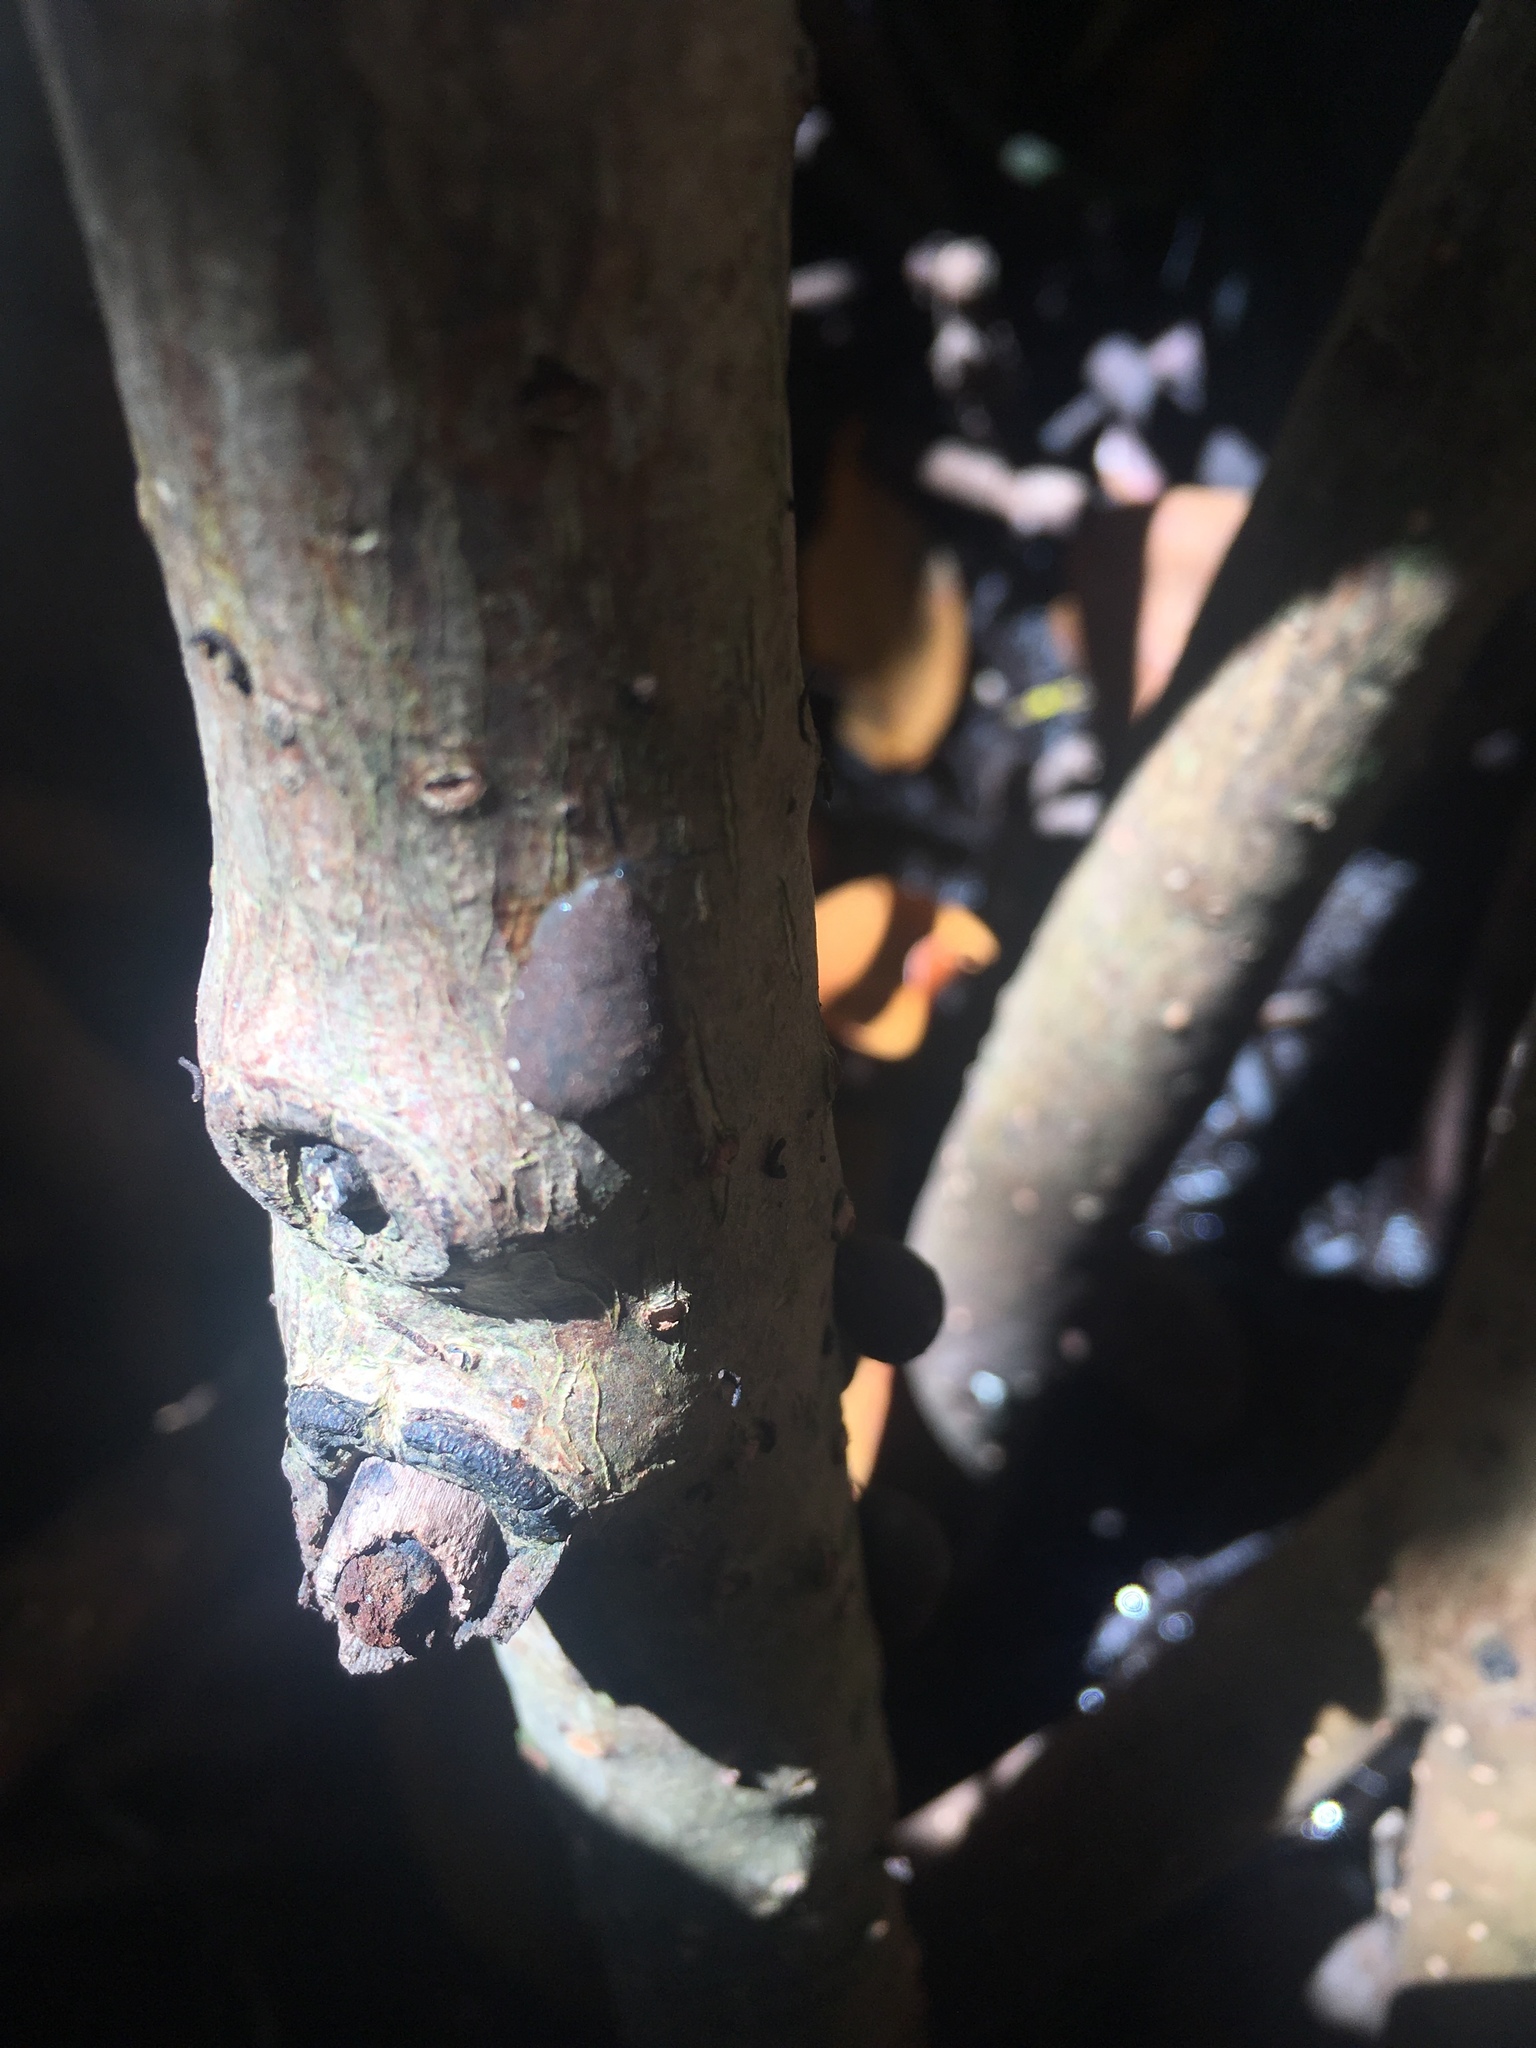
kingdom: Animalia
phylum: Mollusca
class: Gastropoda
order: Ellobiida
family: Ellobiidae
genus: Melampus
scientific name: Melampus coffea
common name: Coffee bean snail
